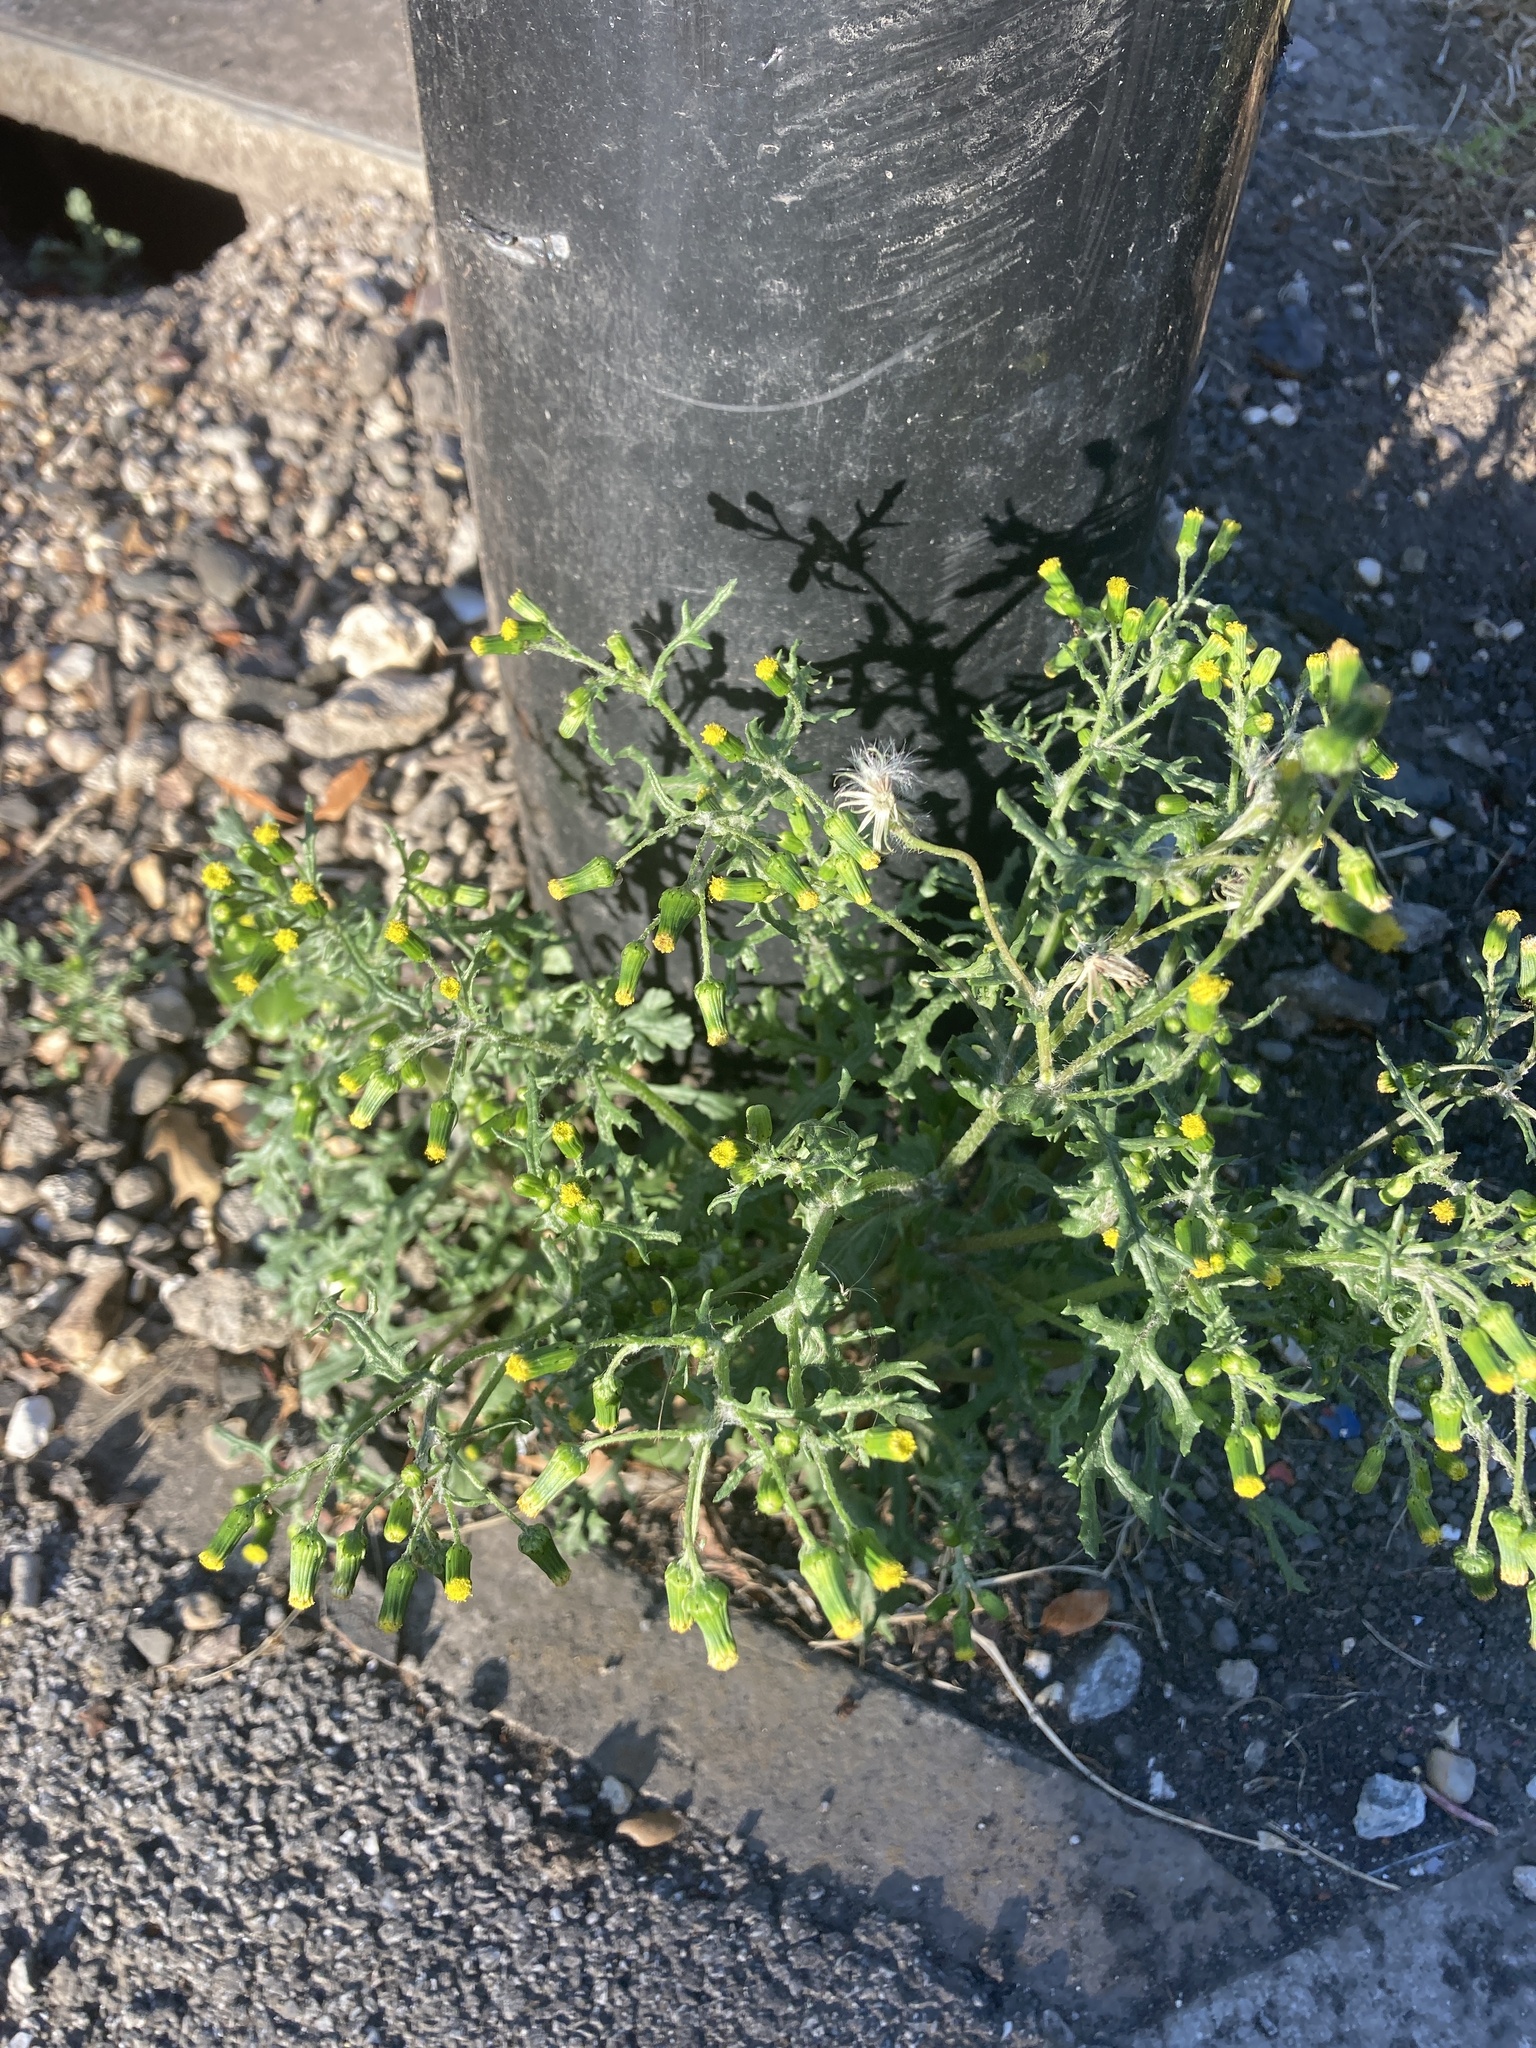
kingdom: Plantae
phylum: Tracheophyta
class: Magnoliopsida
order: Asterales
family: Asteraceae
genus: Senecio
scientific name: Senecio vulgaris
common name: Old-man-in-the-spring
